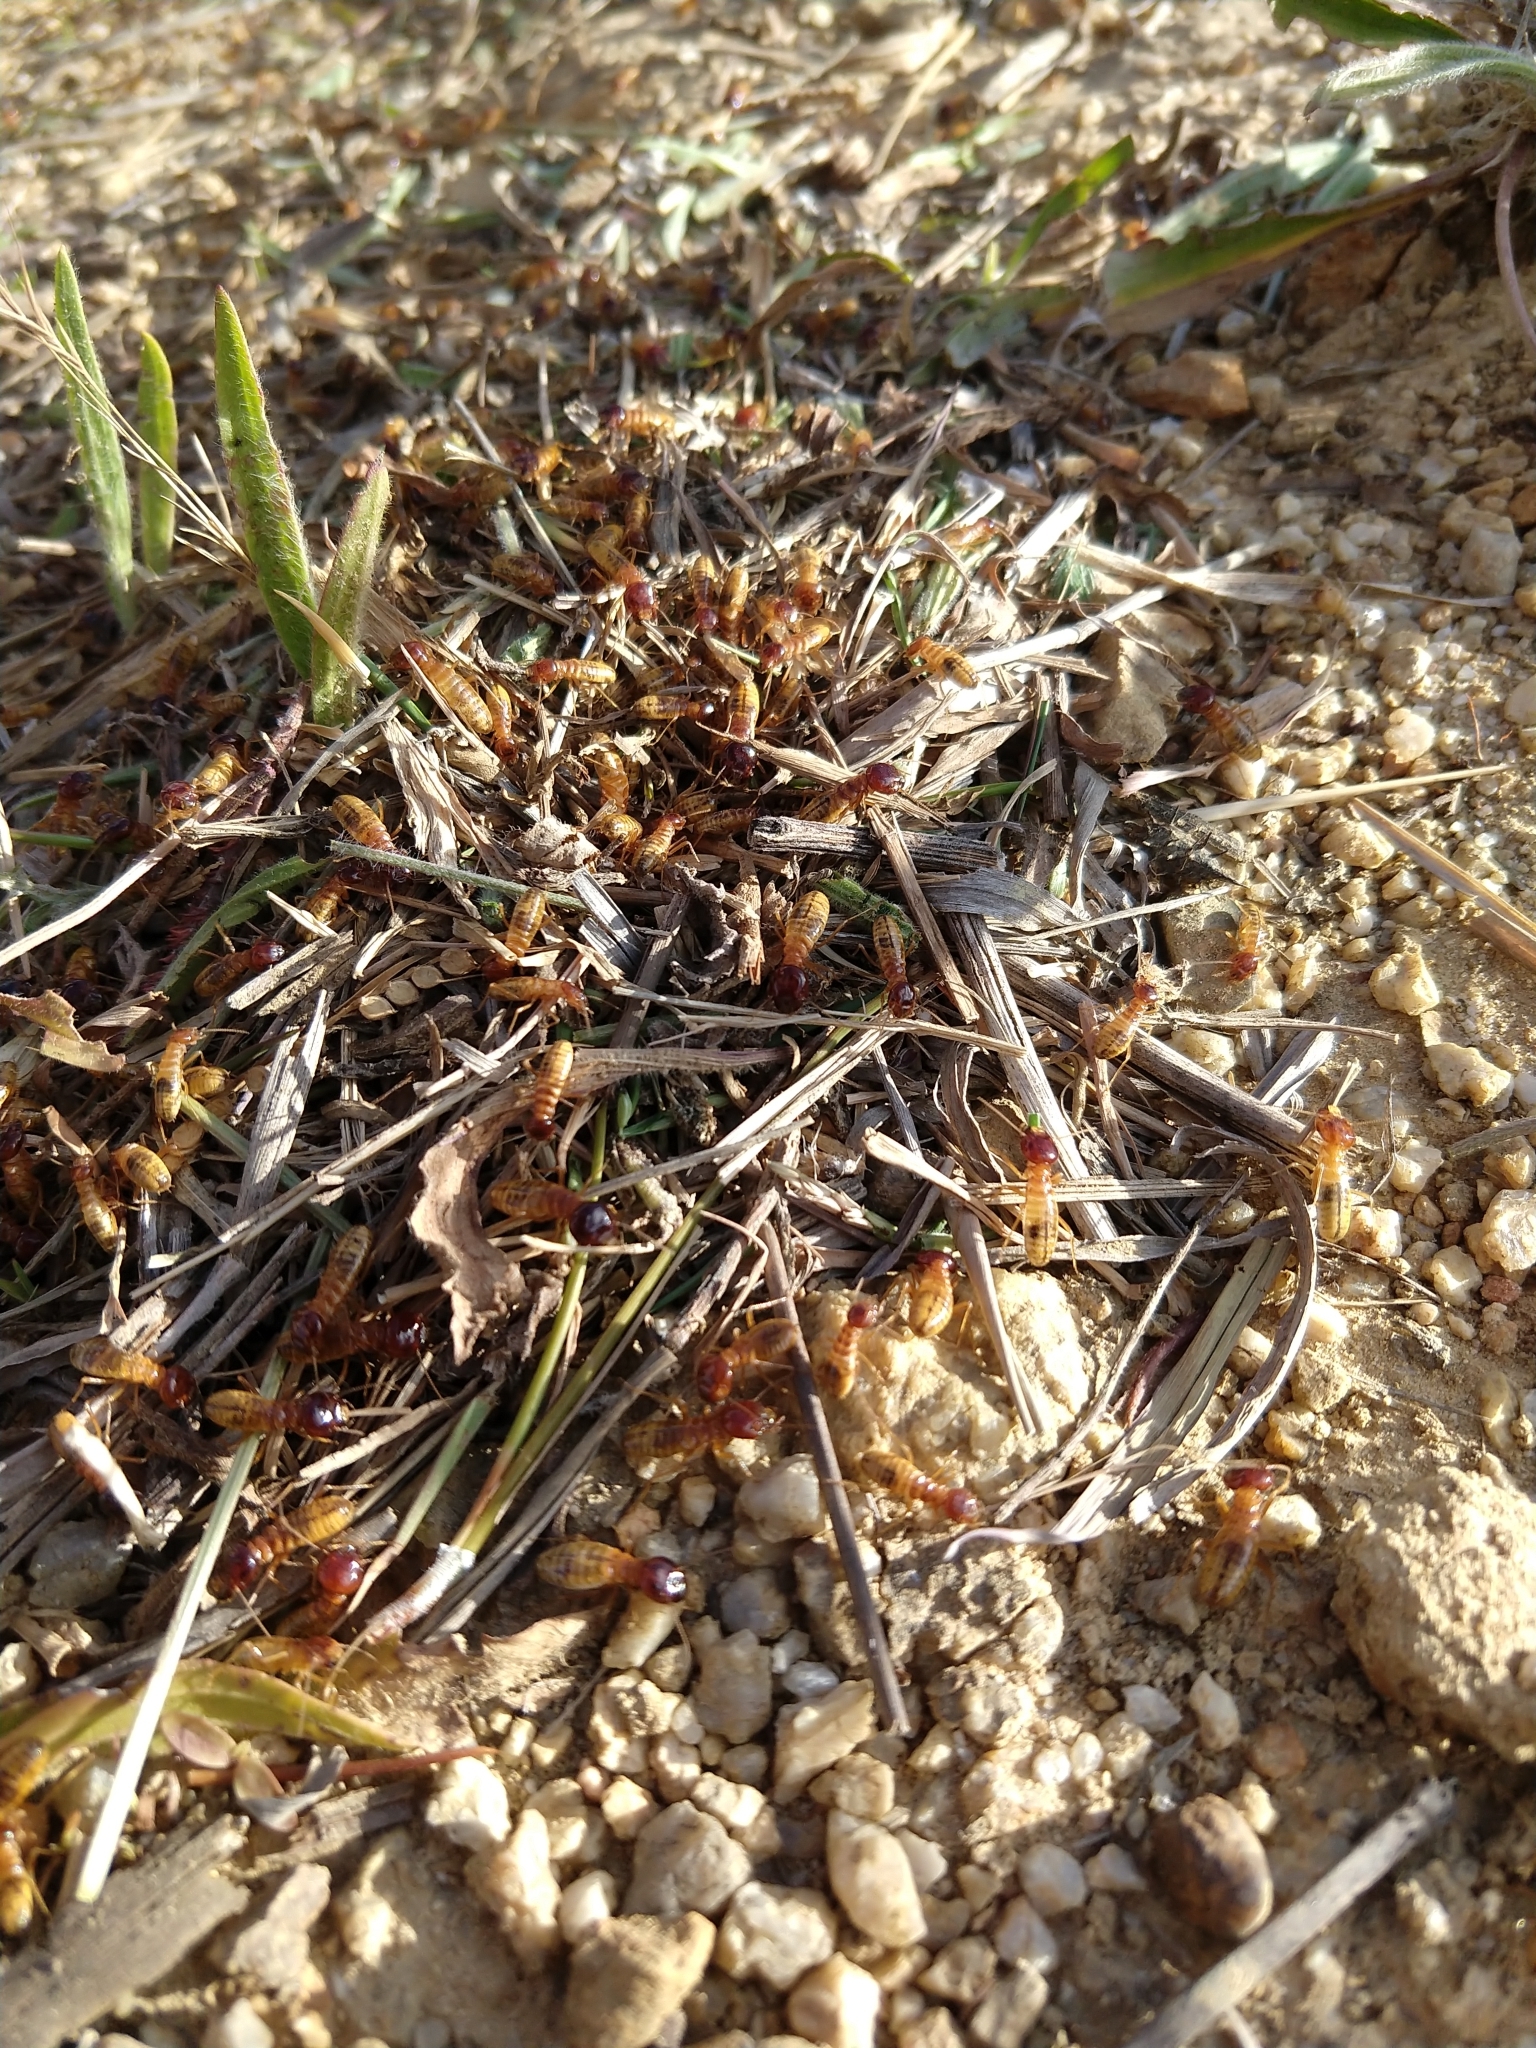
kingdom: Animalia
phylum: Arthropoda
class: Insecta
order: Blattodea
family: Hodotermitidae
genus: Microhodotermes
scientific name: Microhodotermes viator
